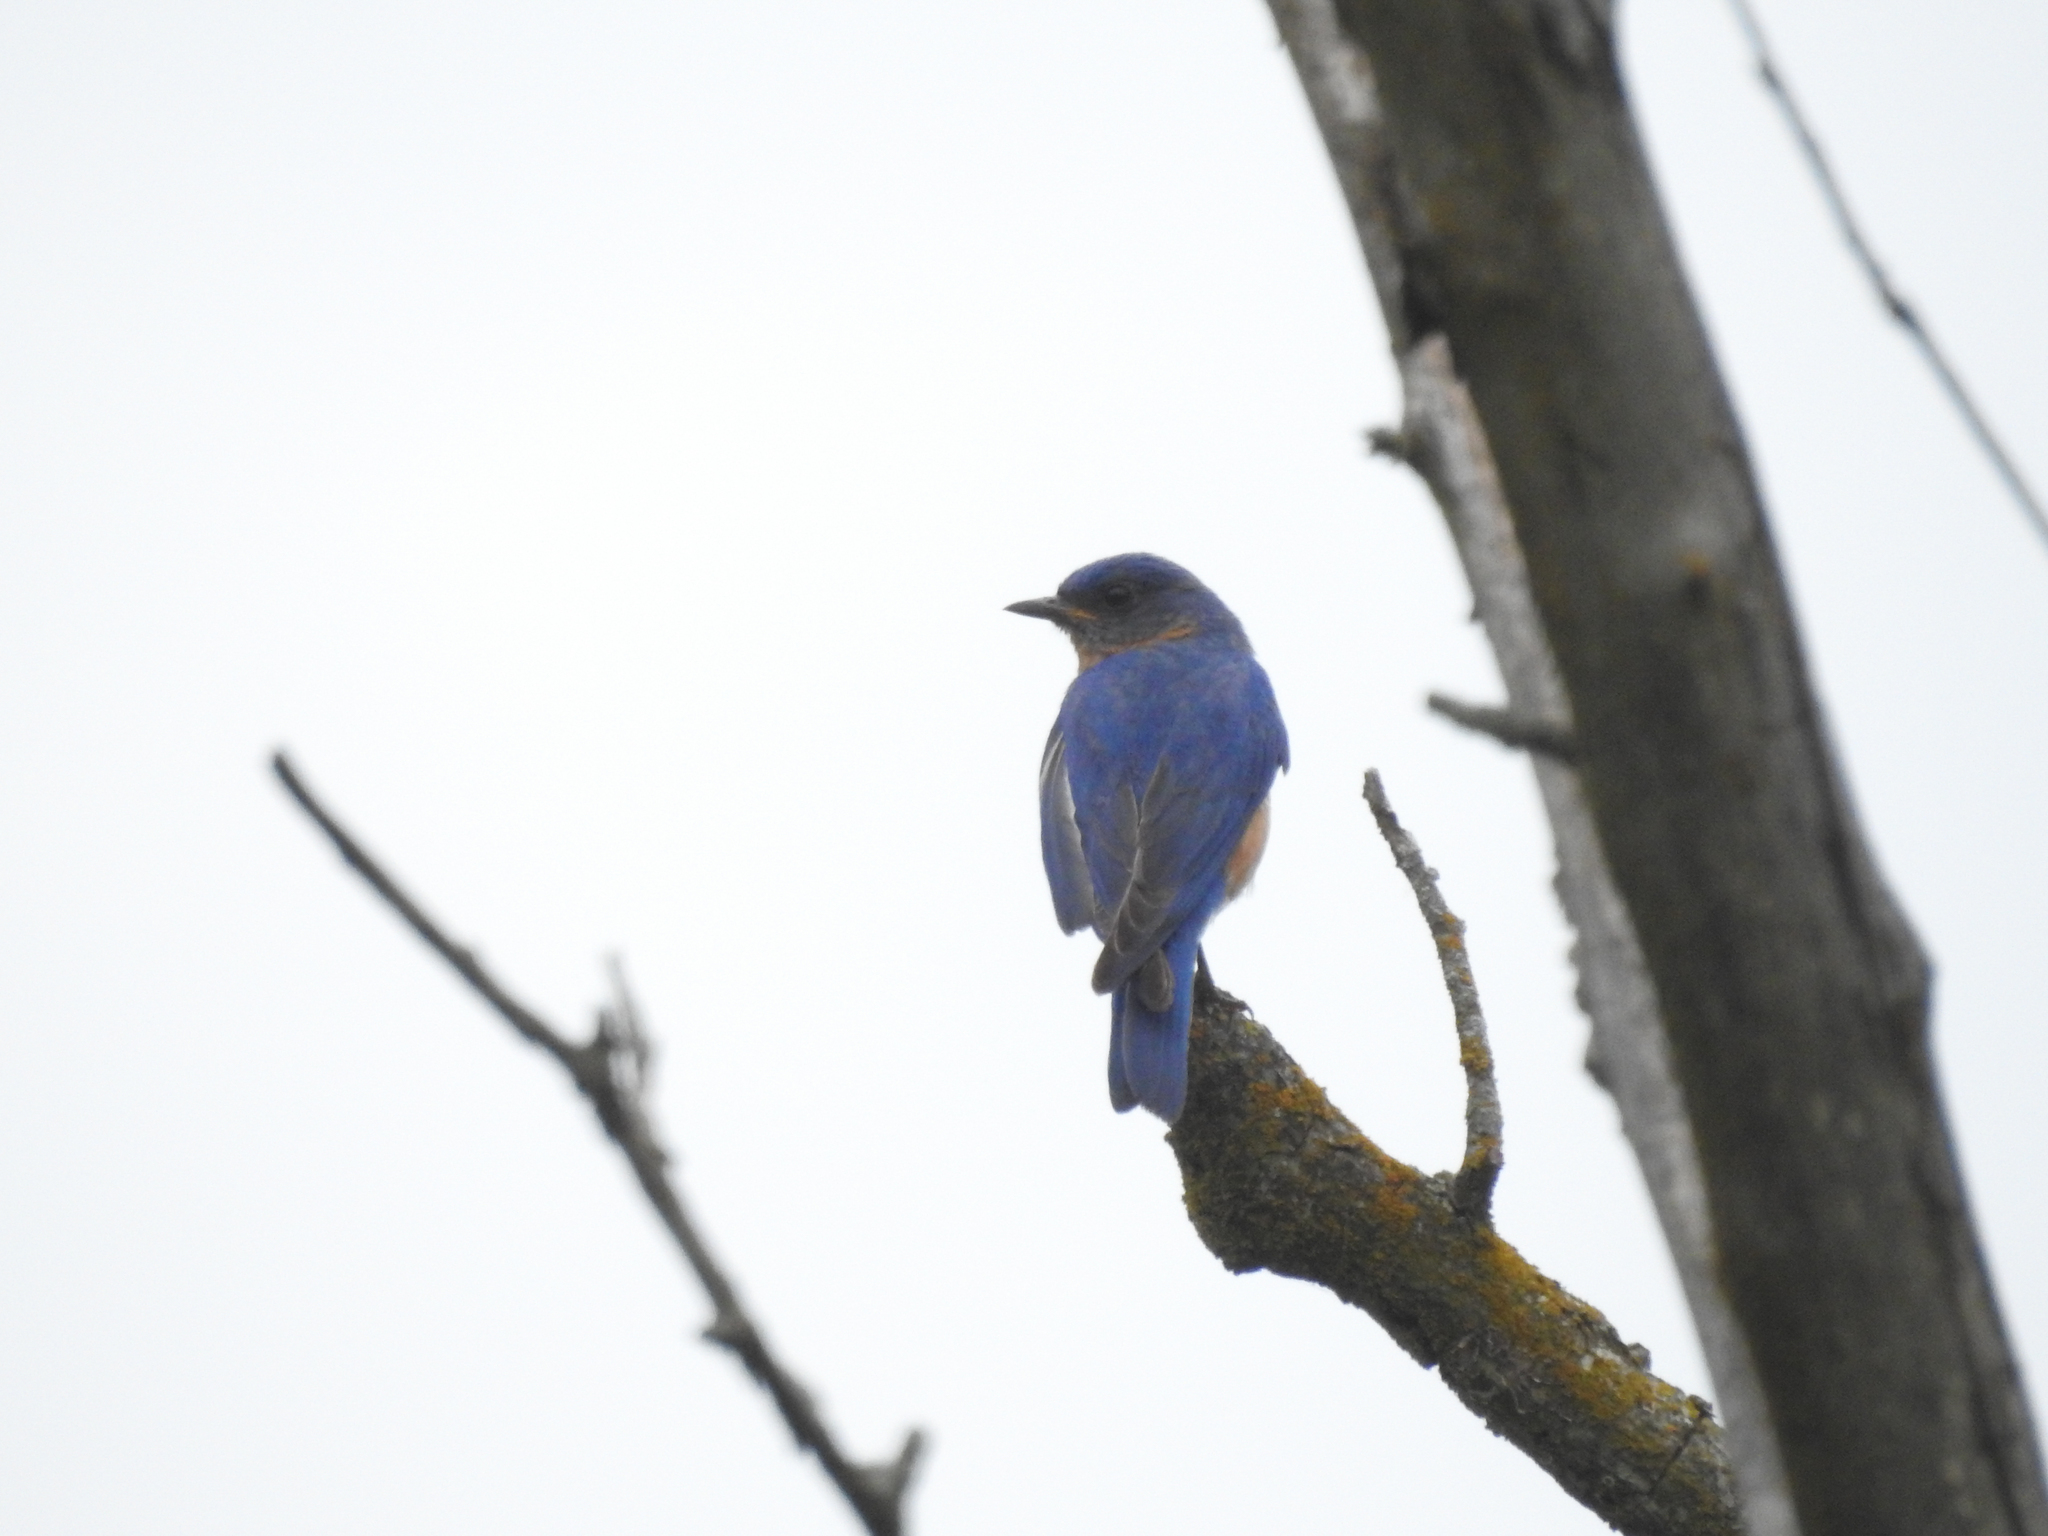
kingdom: Animalia
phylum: Chordata
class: Aves
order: Passeriformes
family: Turdidae
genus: Sialia
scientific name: Sialia sialis
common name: Eastern bluebird
